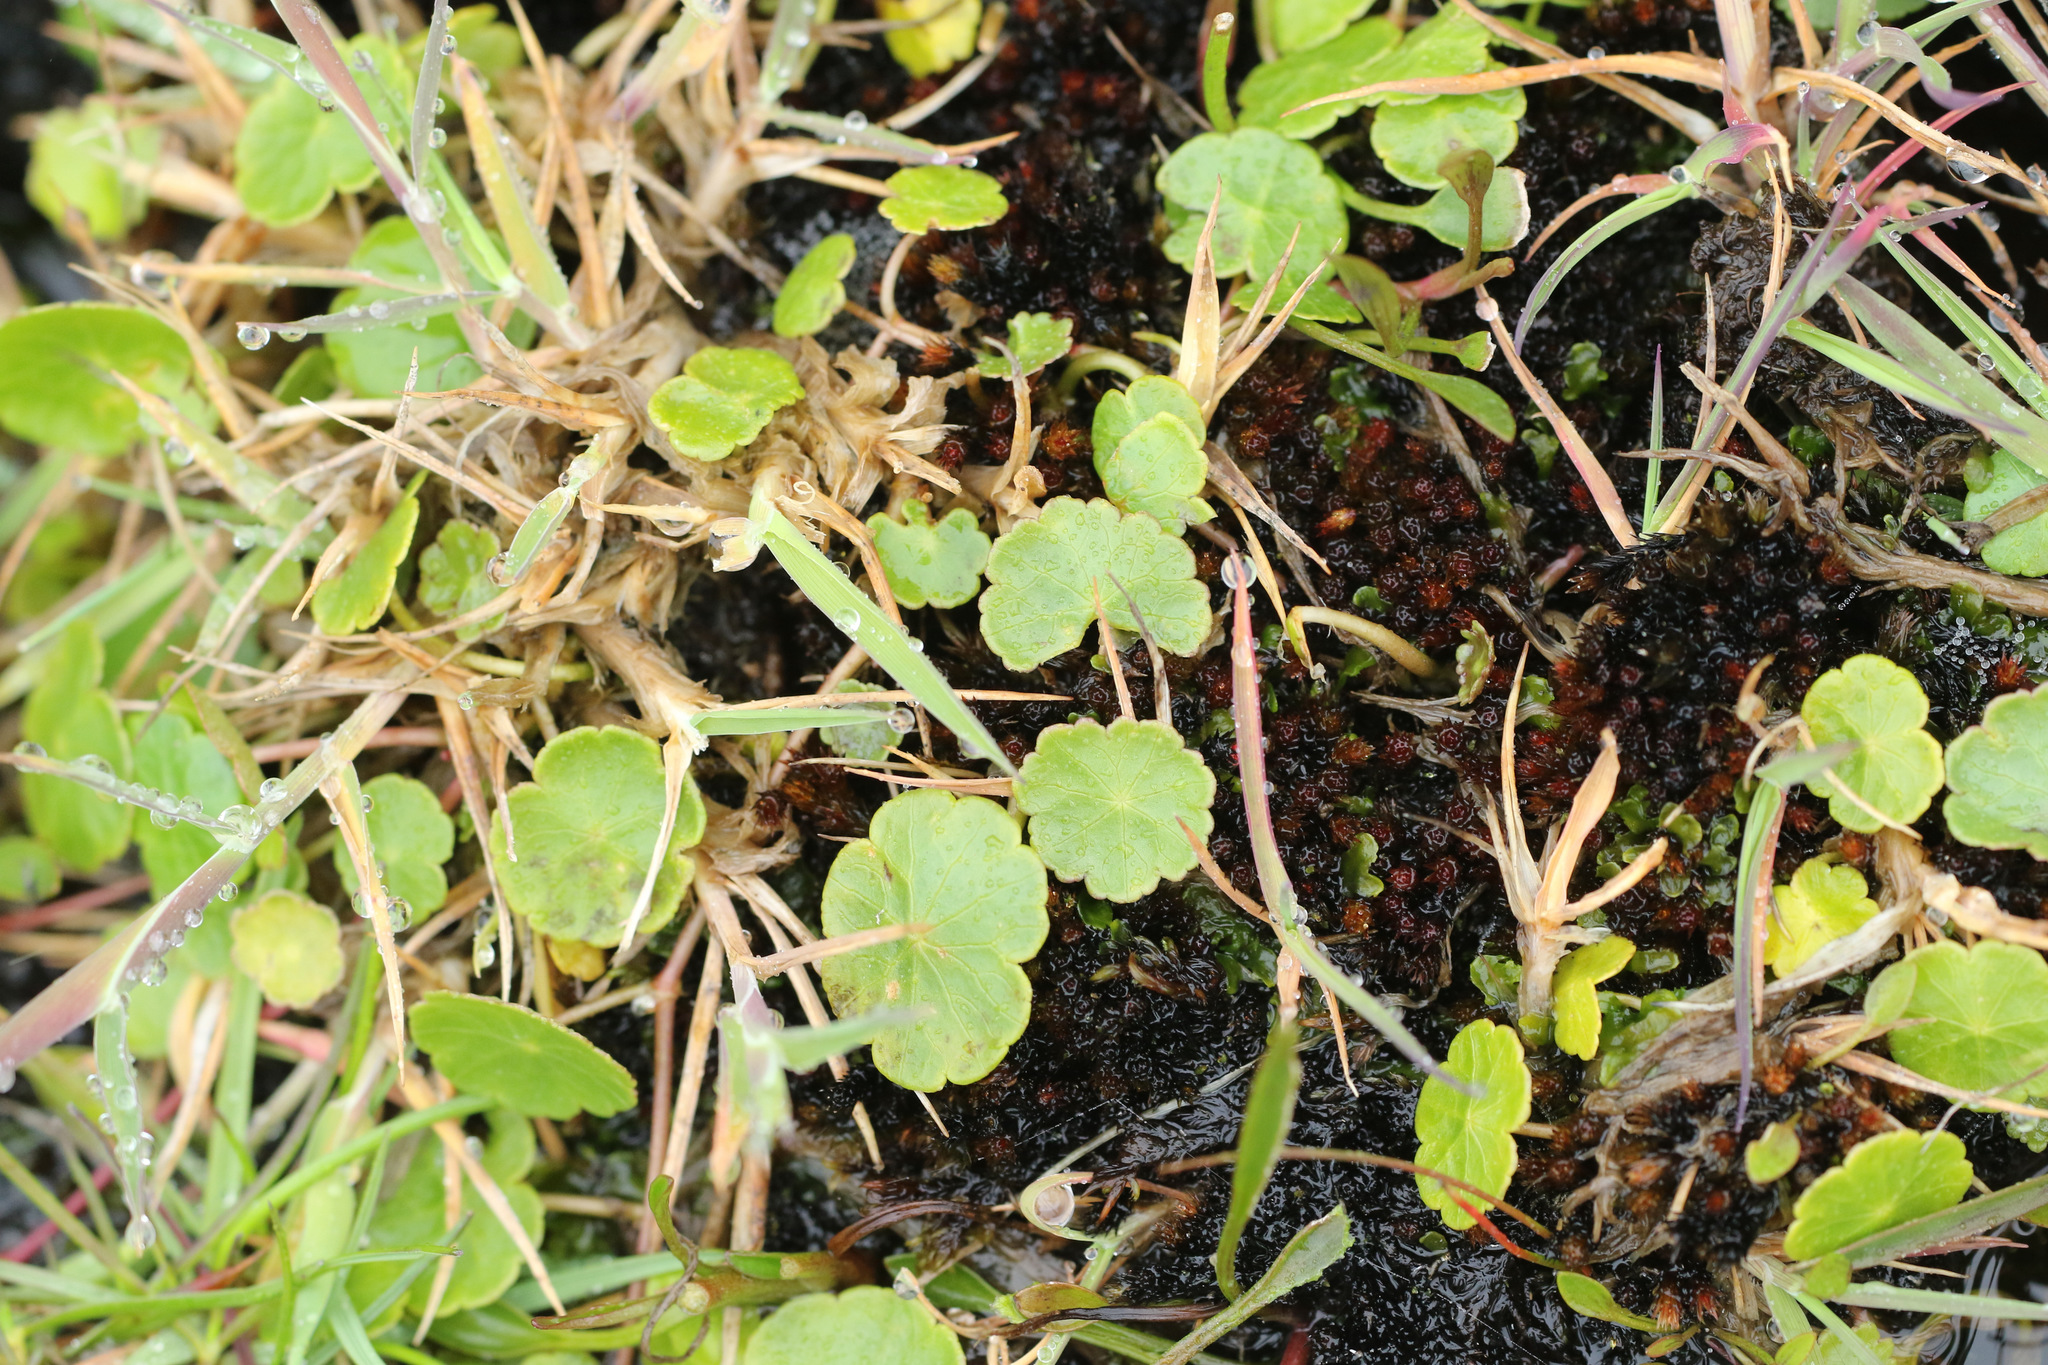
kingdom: Plantae
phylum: Tracheophyta
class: Magnoliopsida
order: Apiales
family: Araliaceae
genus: Hydrocotyle
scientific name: Hydrocotyle vulgaris
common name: Marsh pennywort
